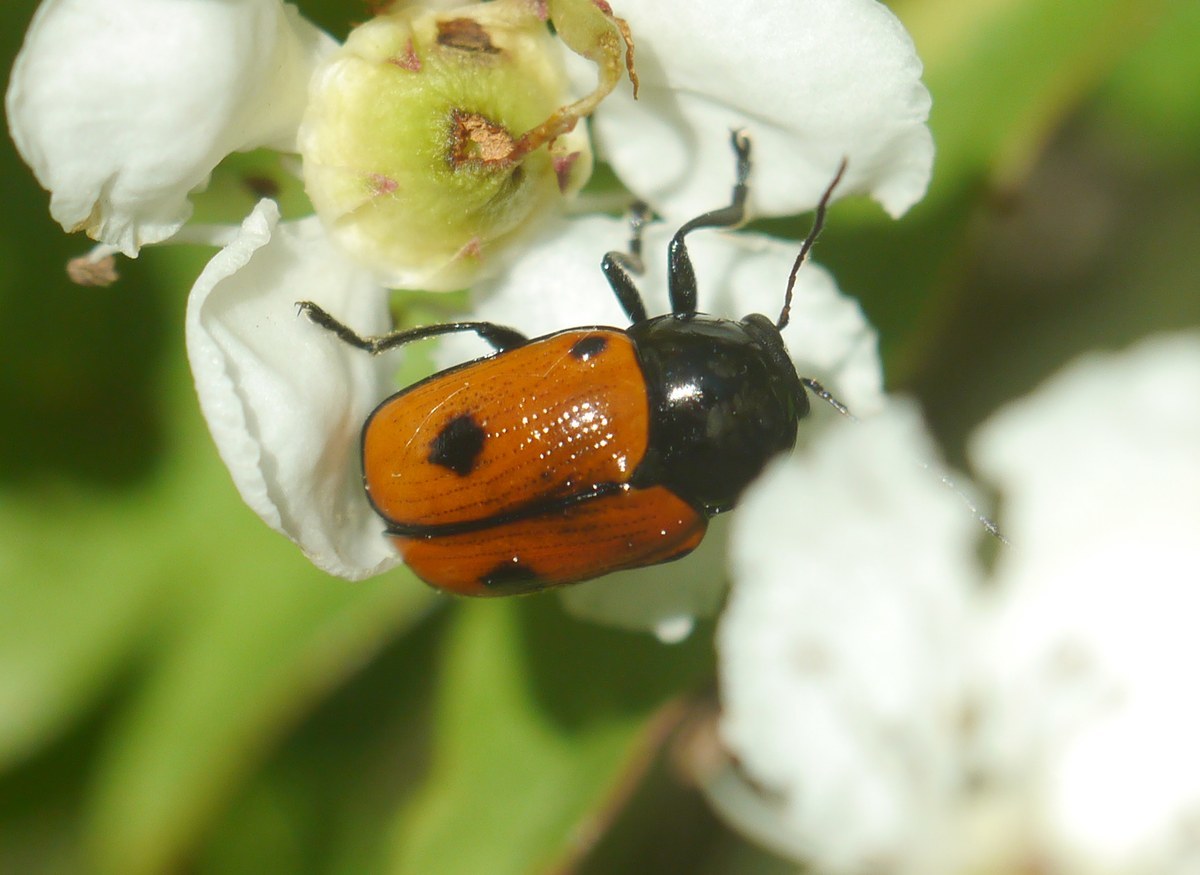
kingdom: Animalia
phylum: Arthropoda
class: Insecta
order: Coleoptera
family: Chrysomelidae
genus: Chiridopsis
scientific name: Chiridopsis bipunctata
